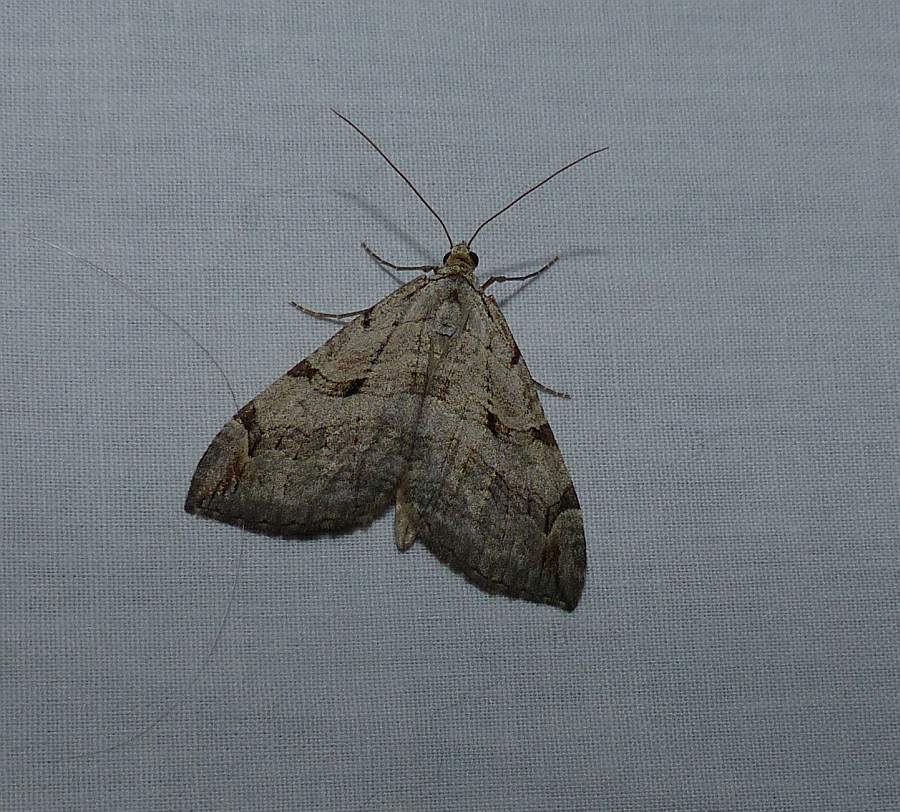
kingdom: Animalia
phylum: Arthropoda
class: Insecta
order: Lepidoptera
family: Geometridae
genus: Aplocera
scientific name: Aplocera plagiata
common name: Treble-bar
